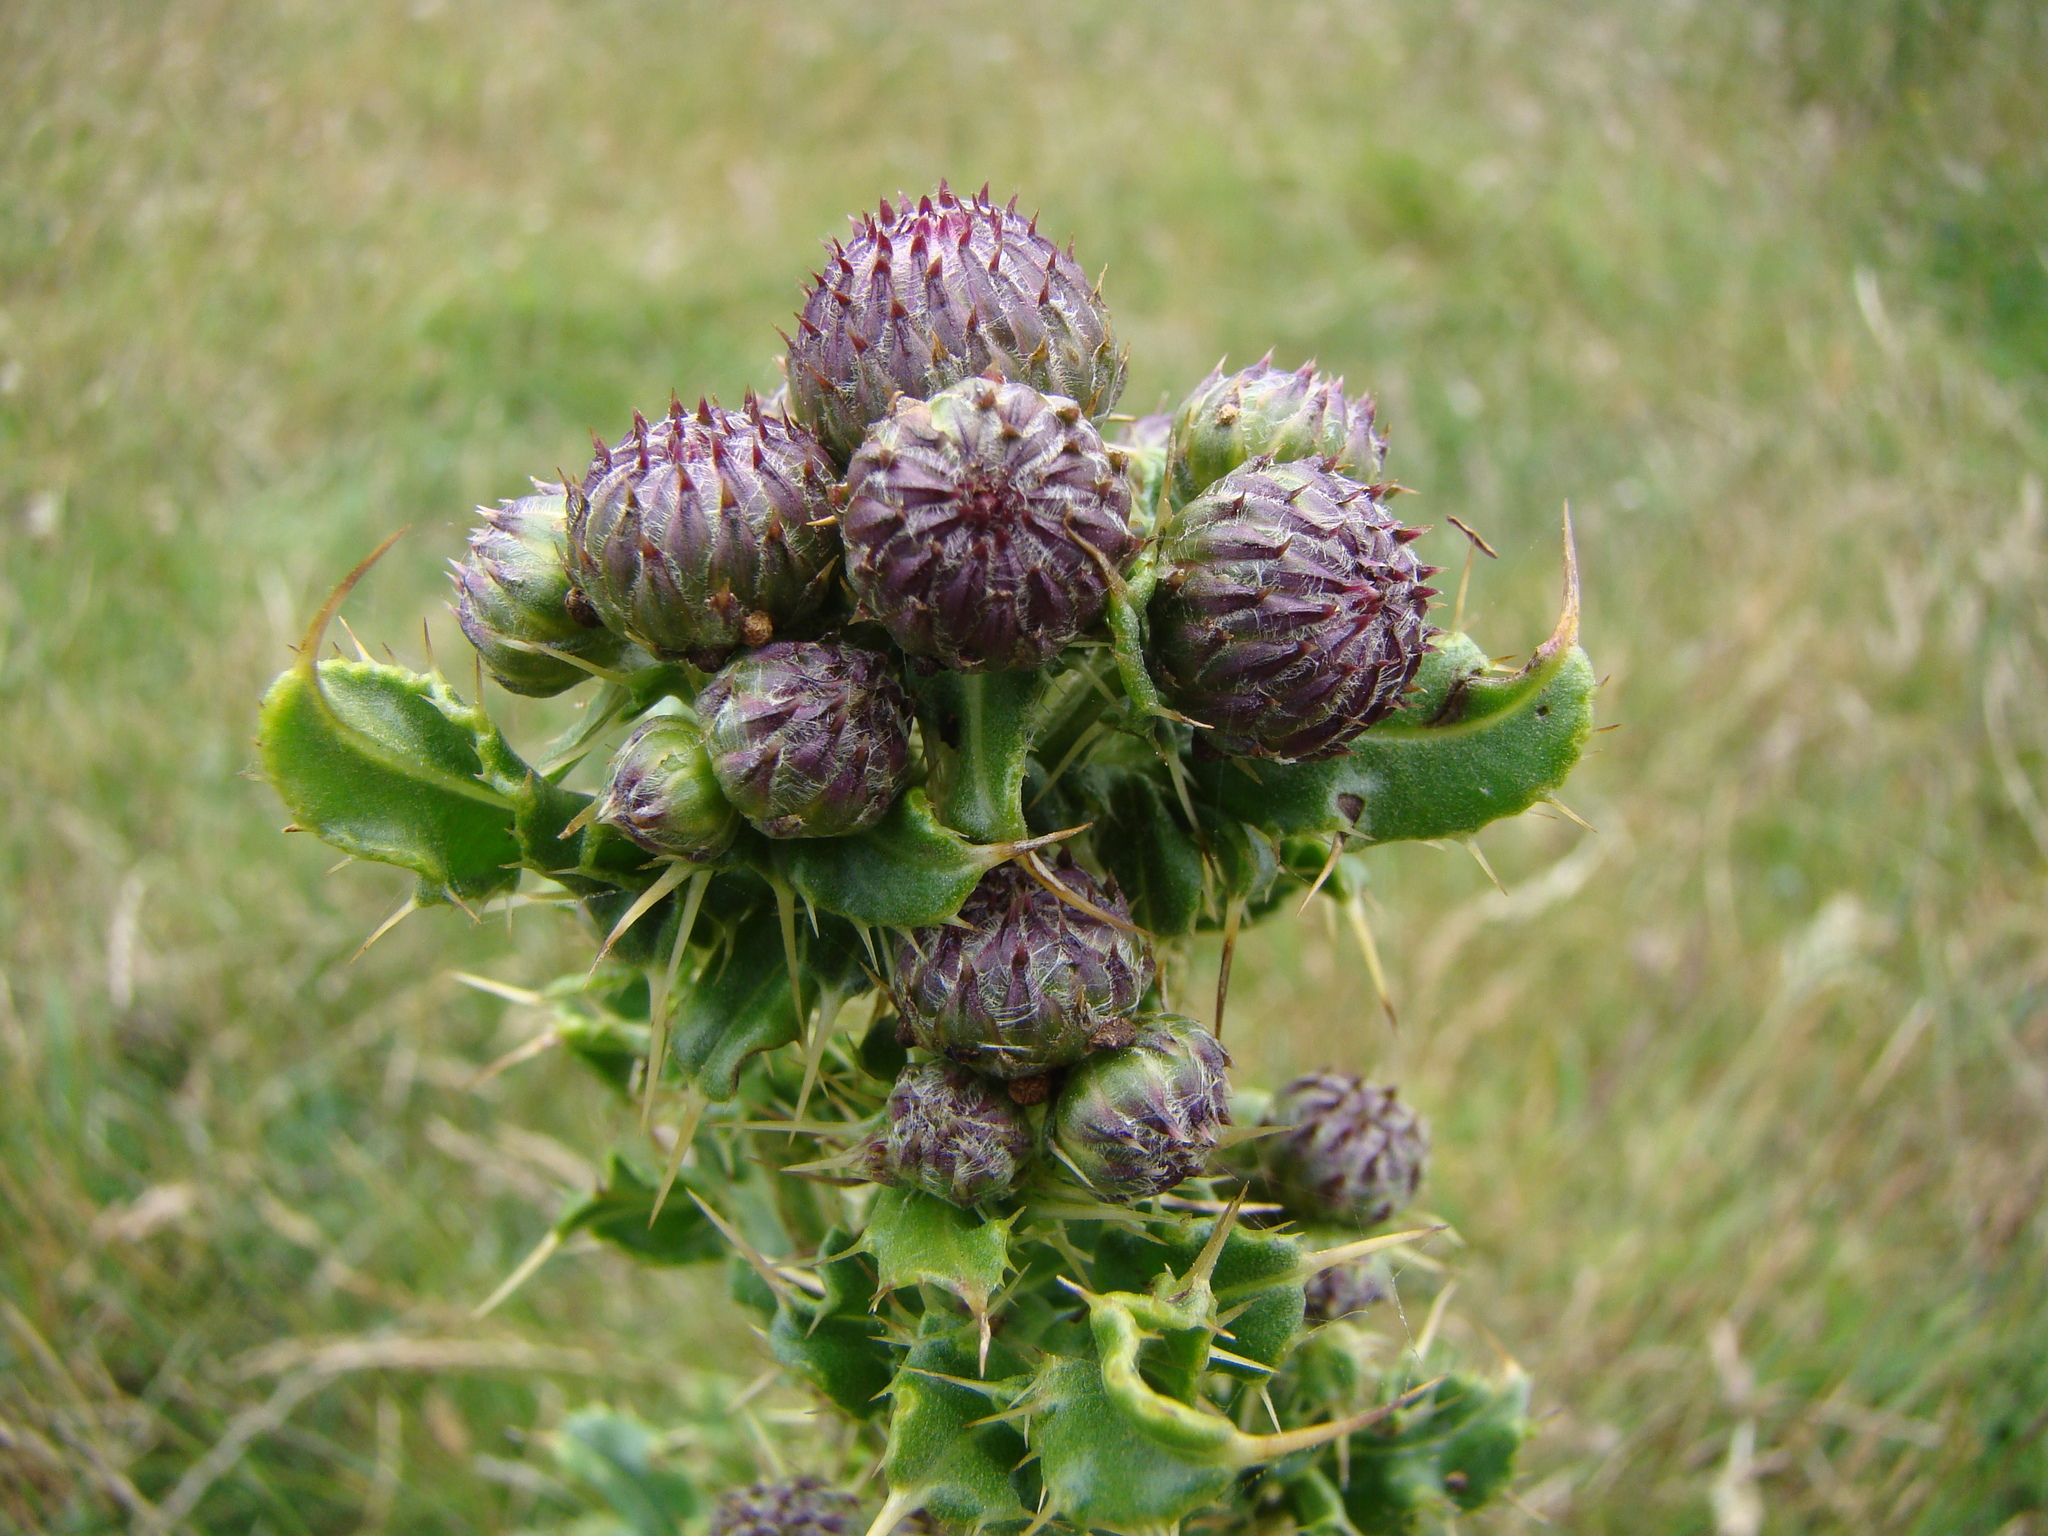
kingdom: Plantae
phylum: Tracheophyta
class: Magnoliopsida
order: Asterales
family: Asteraceae
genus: Cirsium
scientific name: Cirsium arvense
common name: Creeping thistle
